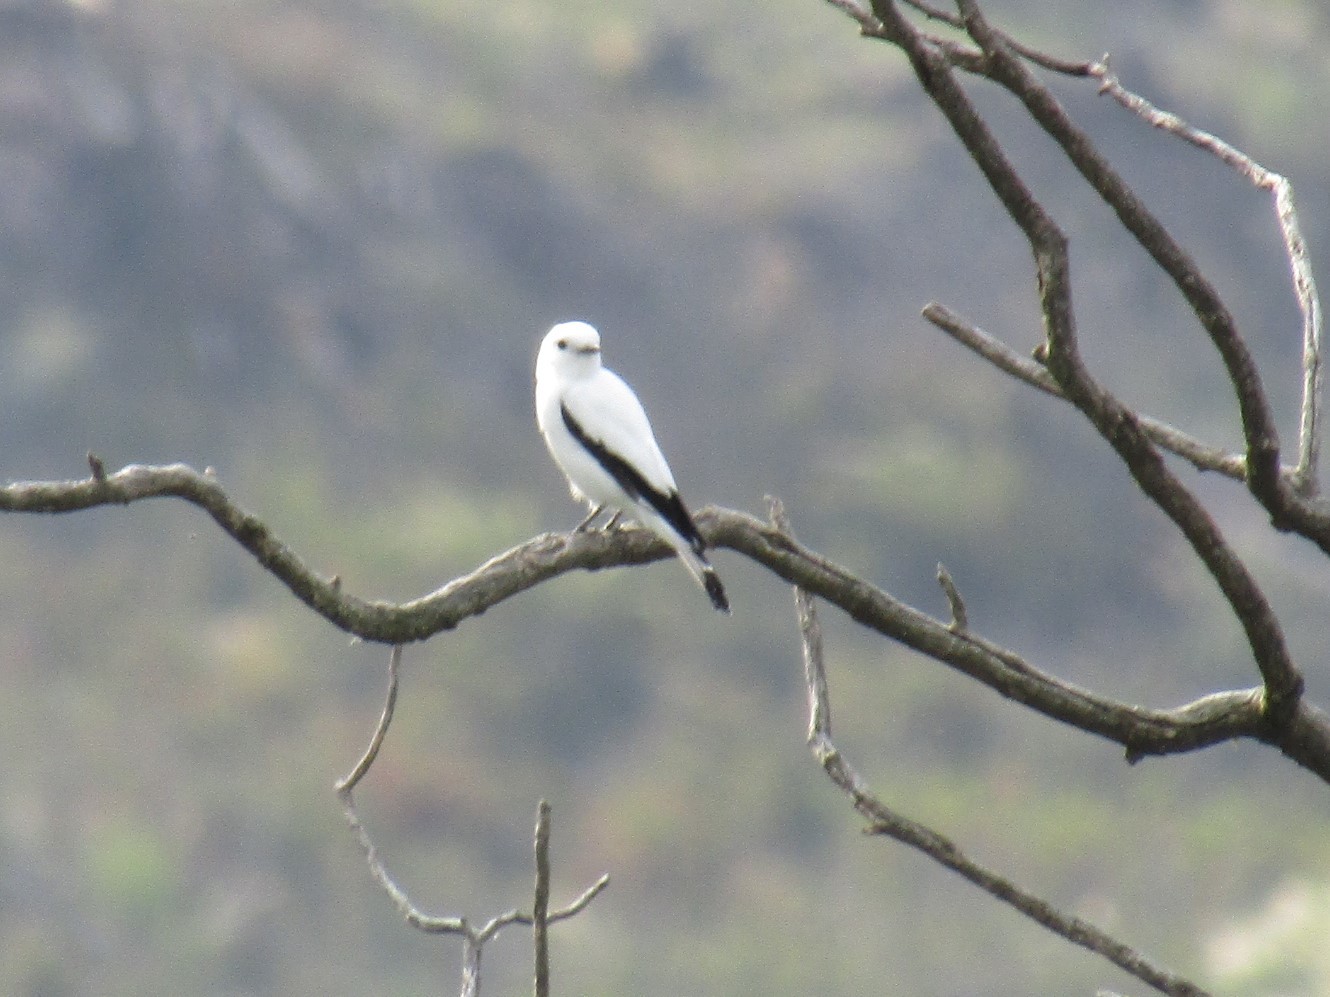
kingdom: Animalia
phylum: Chordata
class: Aves
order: Passeriformes
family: Tyrannidae
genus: Xolmis
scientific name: Xolmis irupero
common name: White monjita
